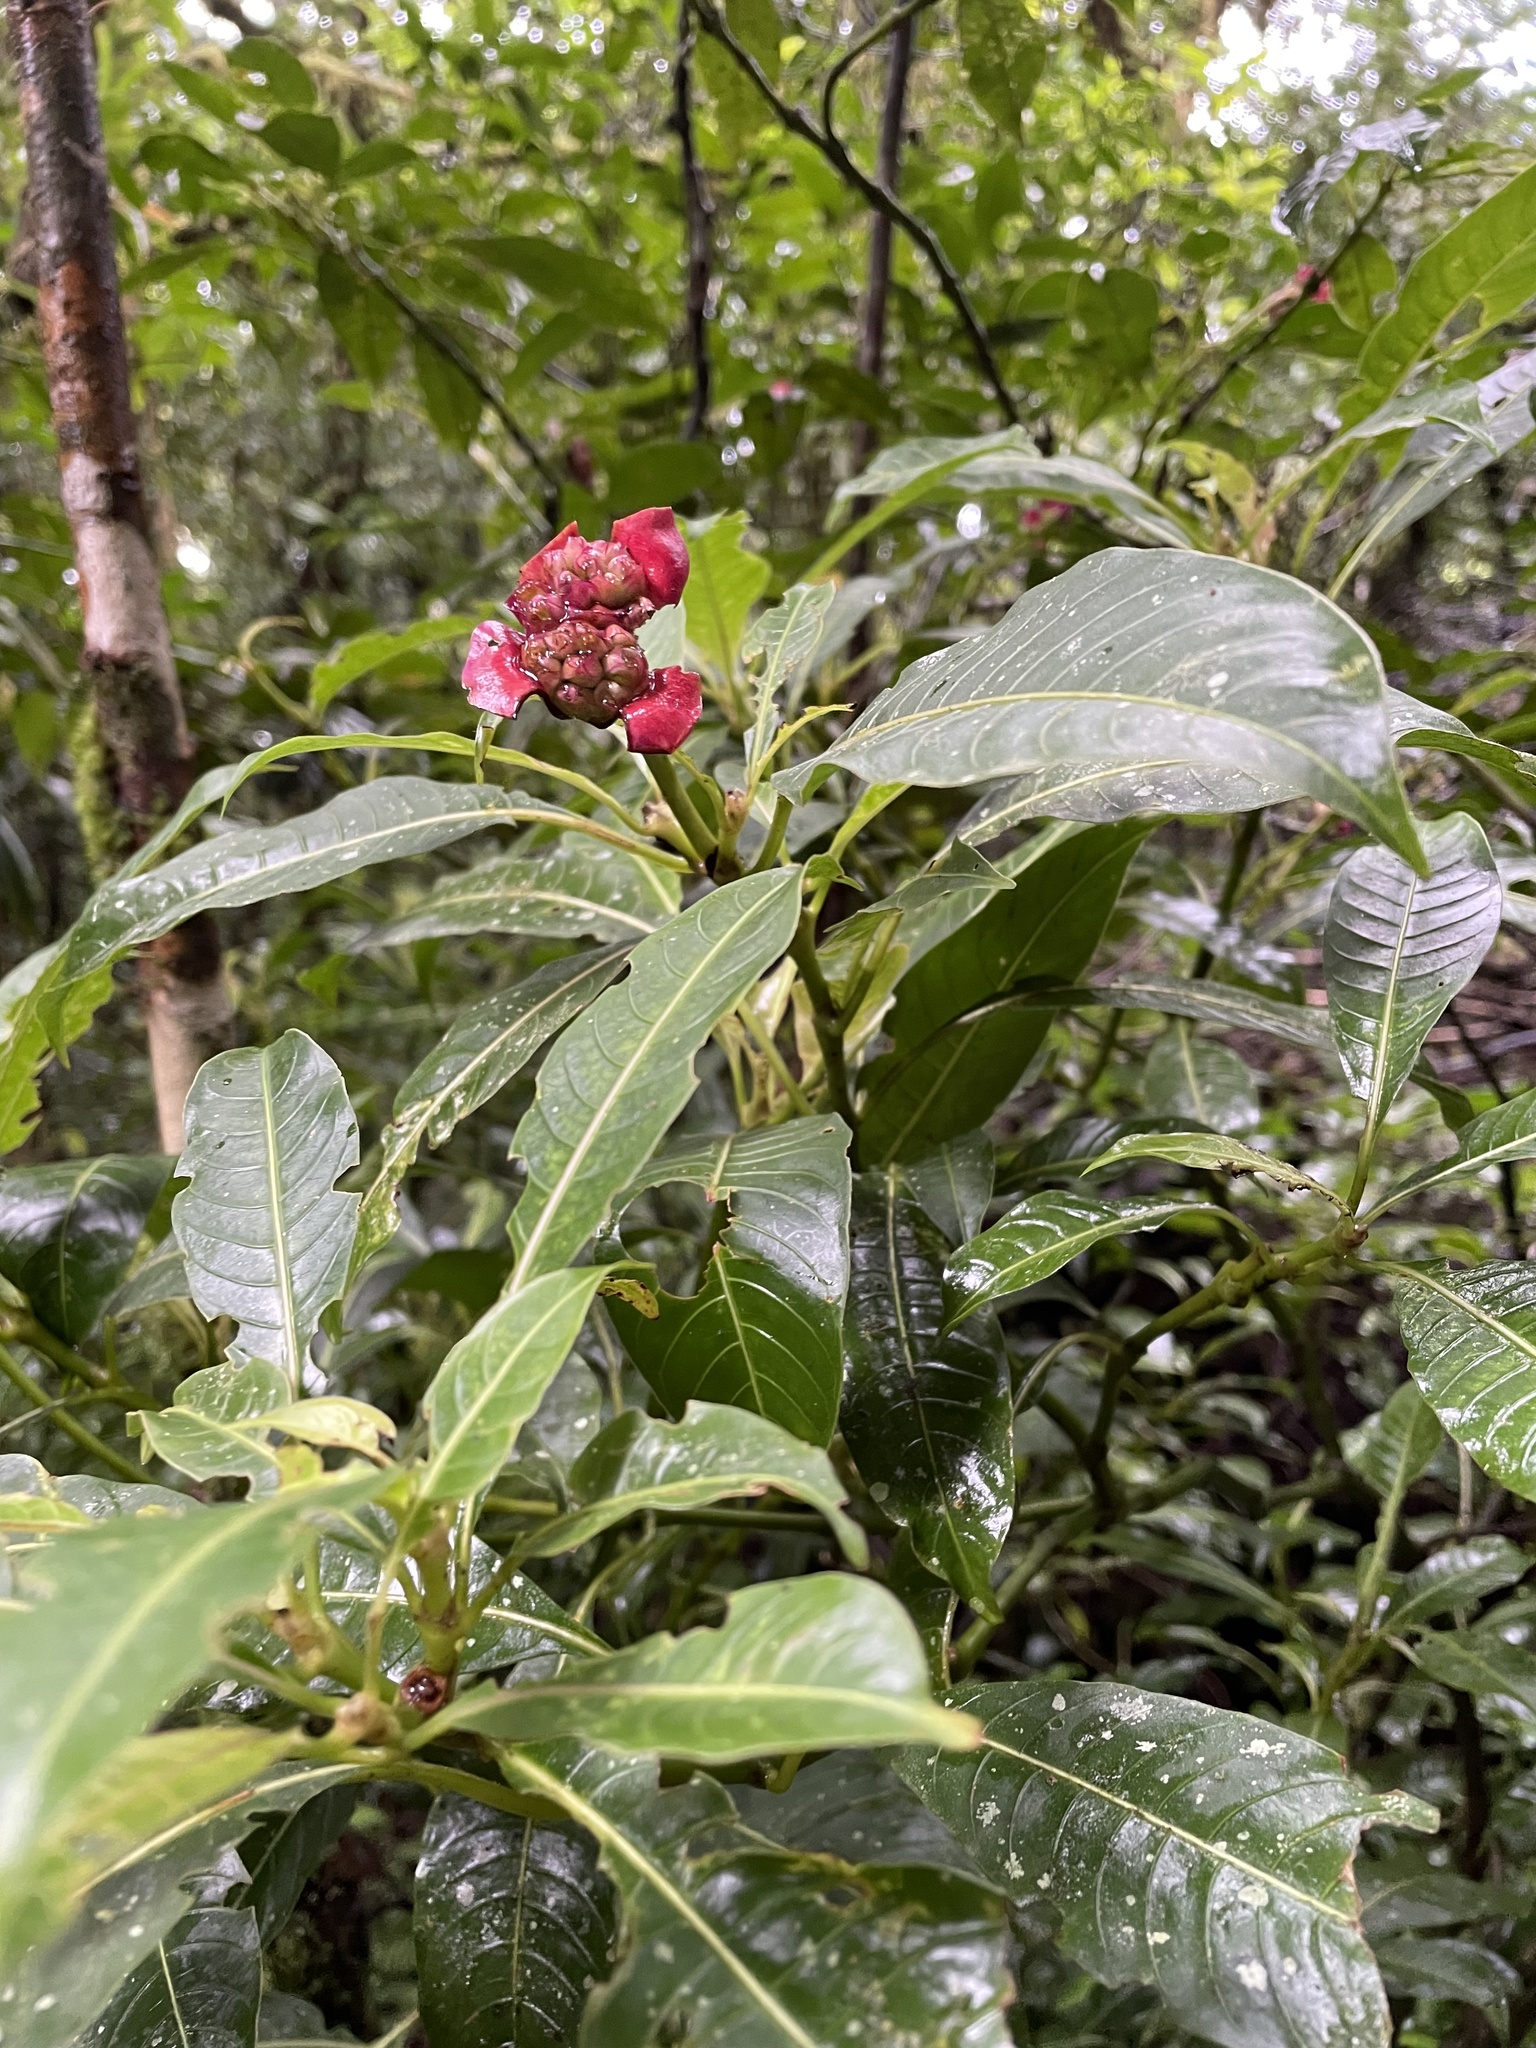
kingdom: Plantae
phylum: Tracheophyta
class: Magnoliopsida
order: Gentianales
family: Rubiaceae
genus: Palicourea
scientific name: Palicourea elata
